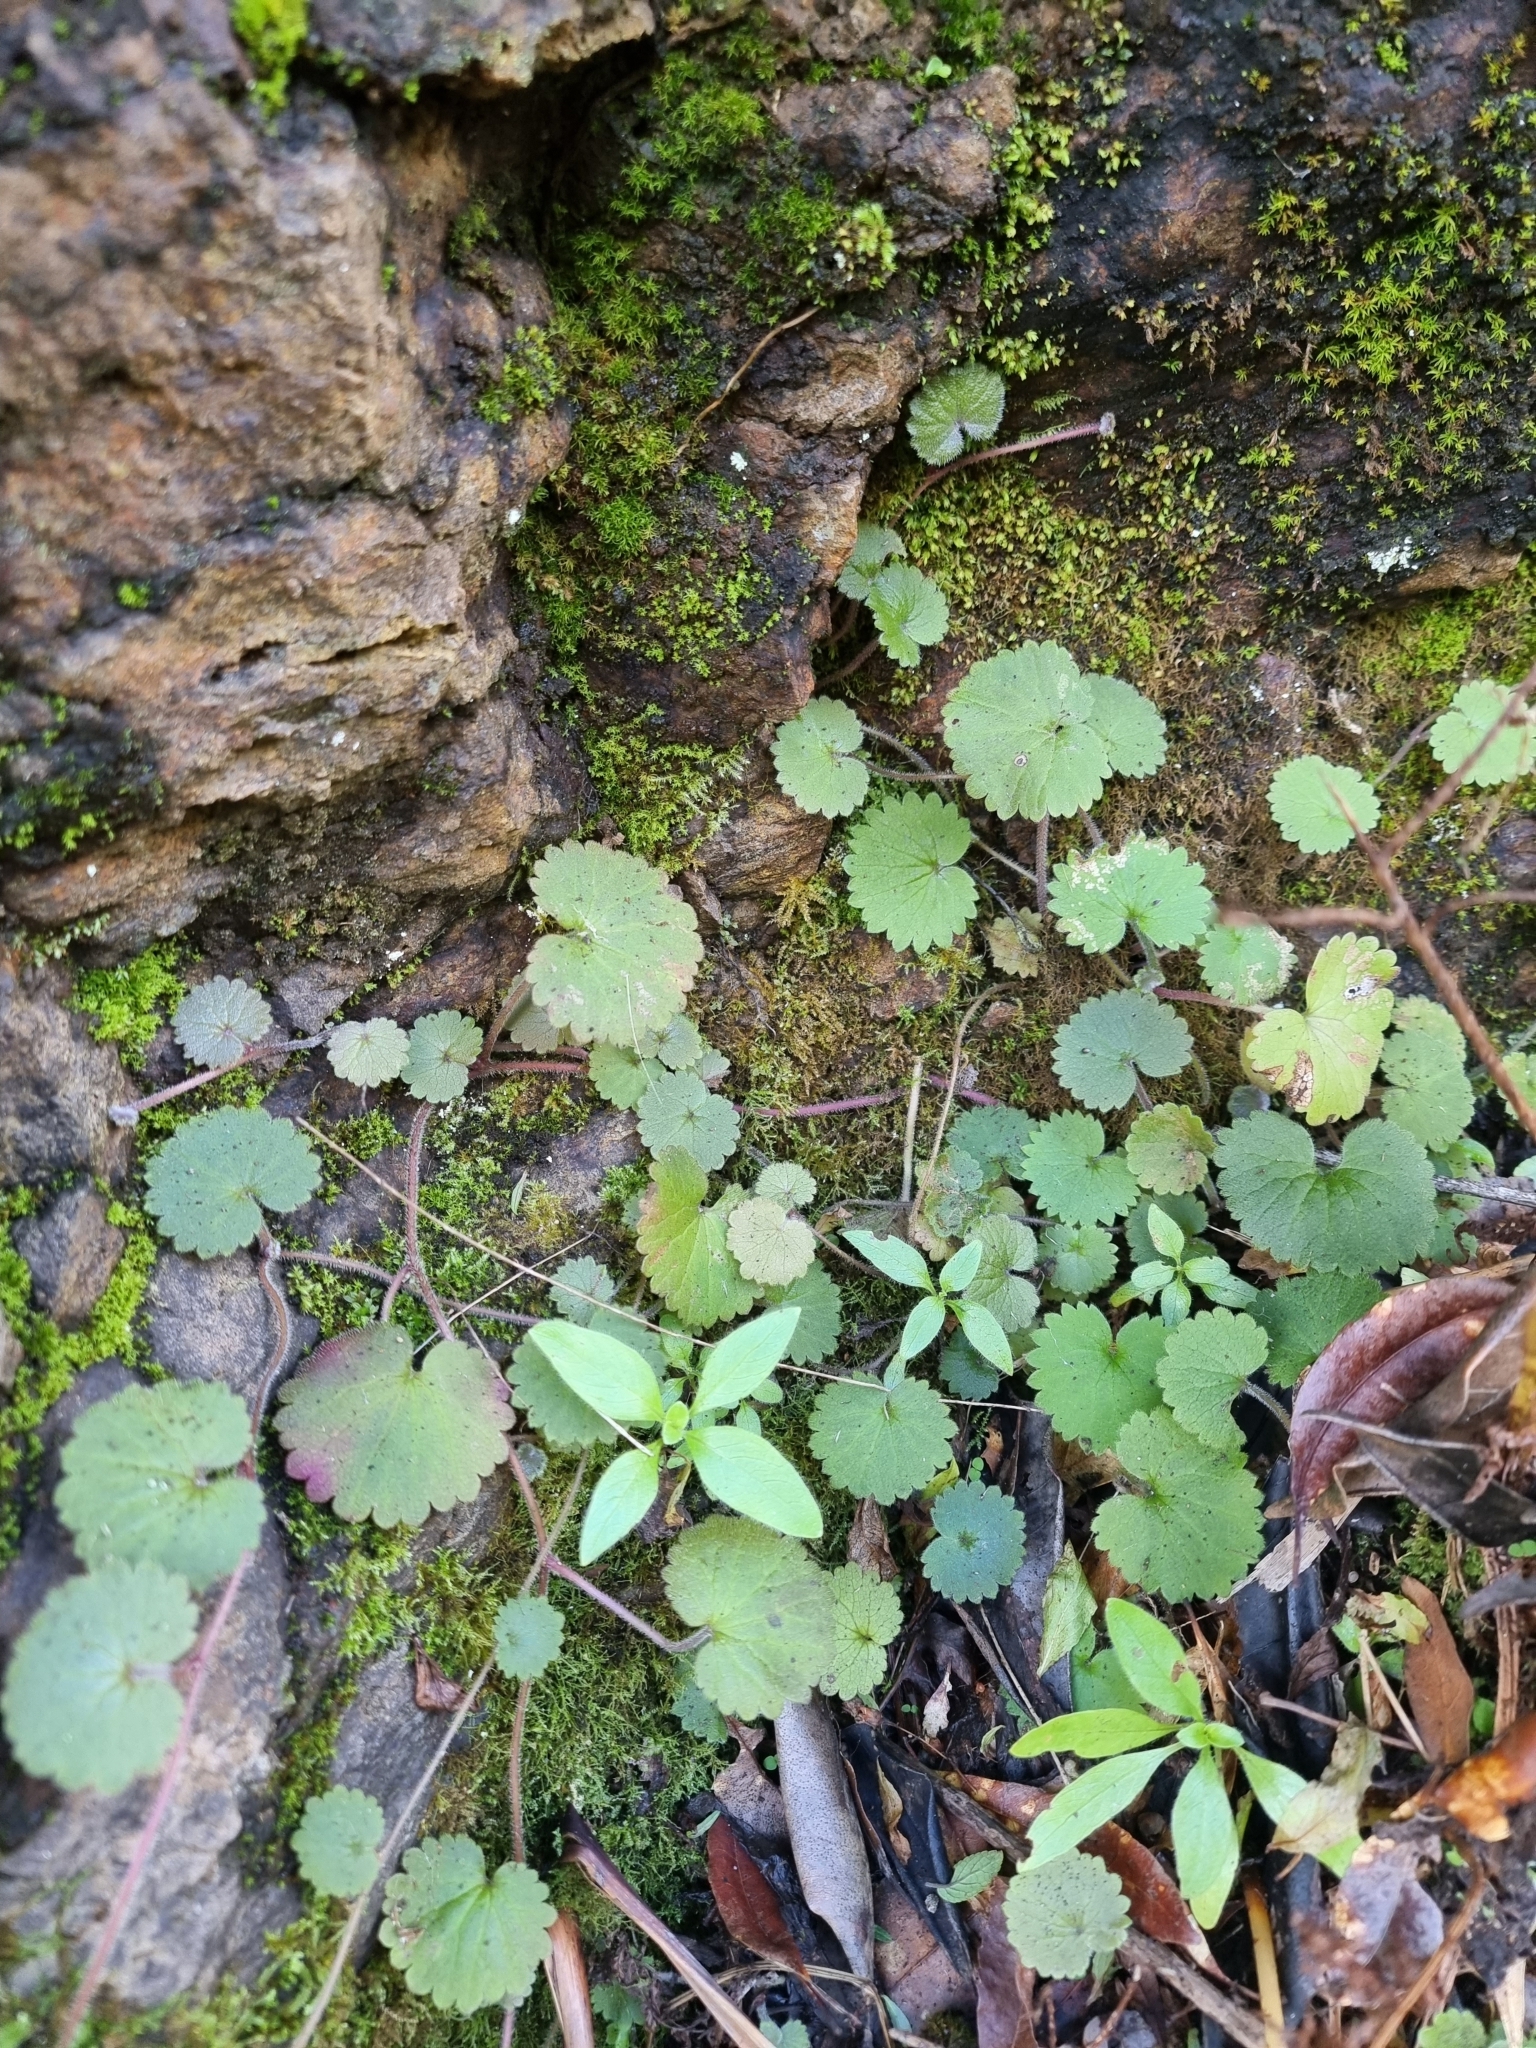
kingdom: Plantae
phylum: Tracheophyta
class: Magnoliopsida
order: Lamiales
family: Plantaginaceae
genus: Sibthorpia
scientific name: Sibthorpia peregrina
